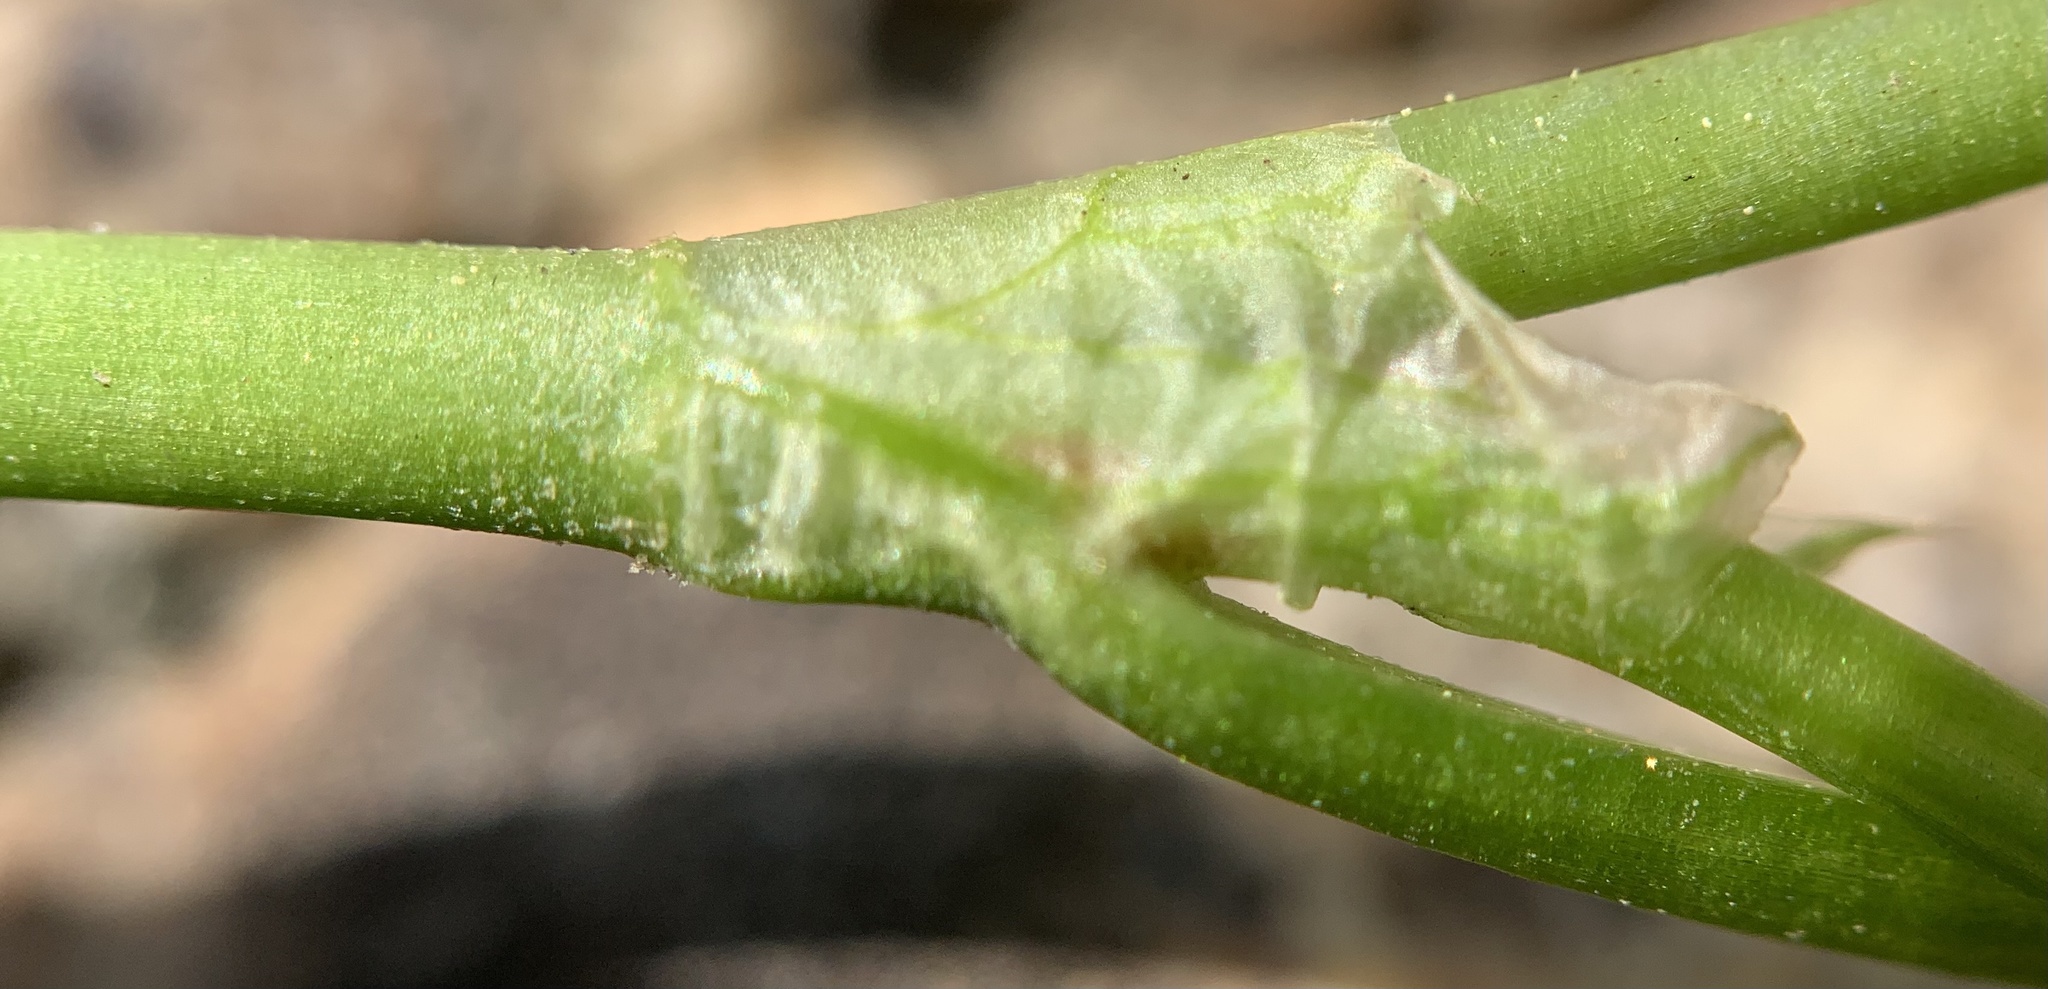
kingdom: Plantae
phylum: Tracheophyta
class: Magnoliopsida
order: Fabales
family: Fabaceae
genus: Trifolium
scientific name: Trifolium repens
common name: White clover
